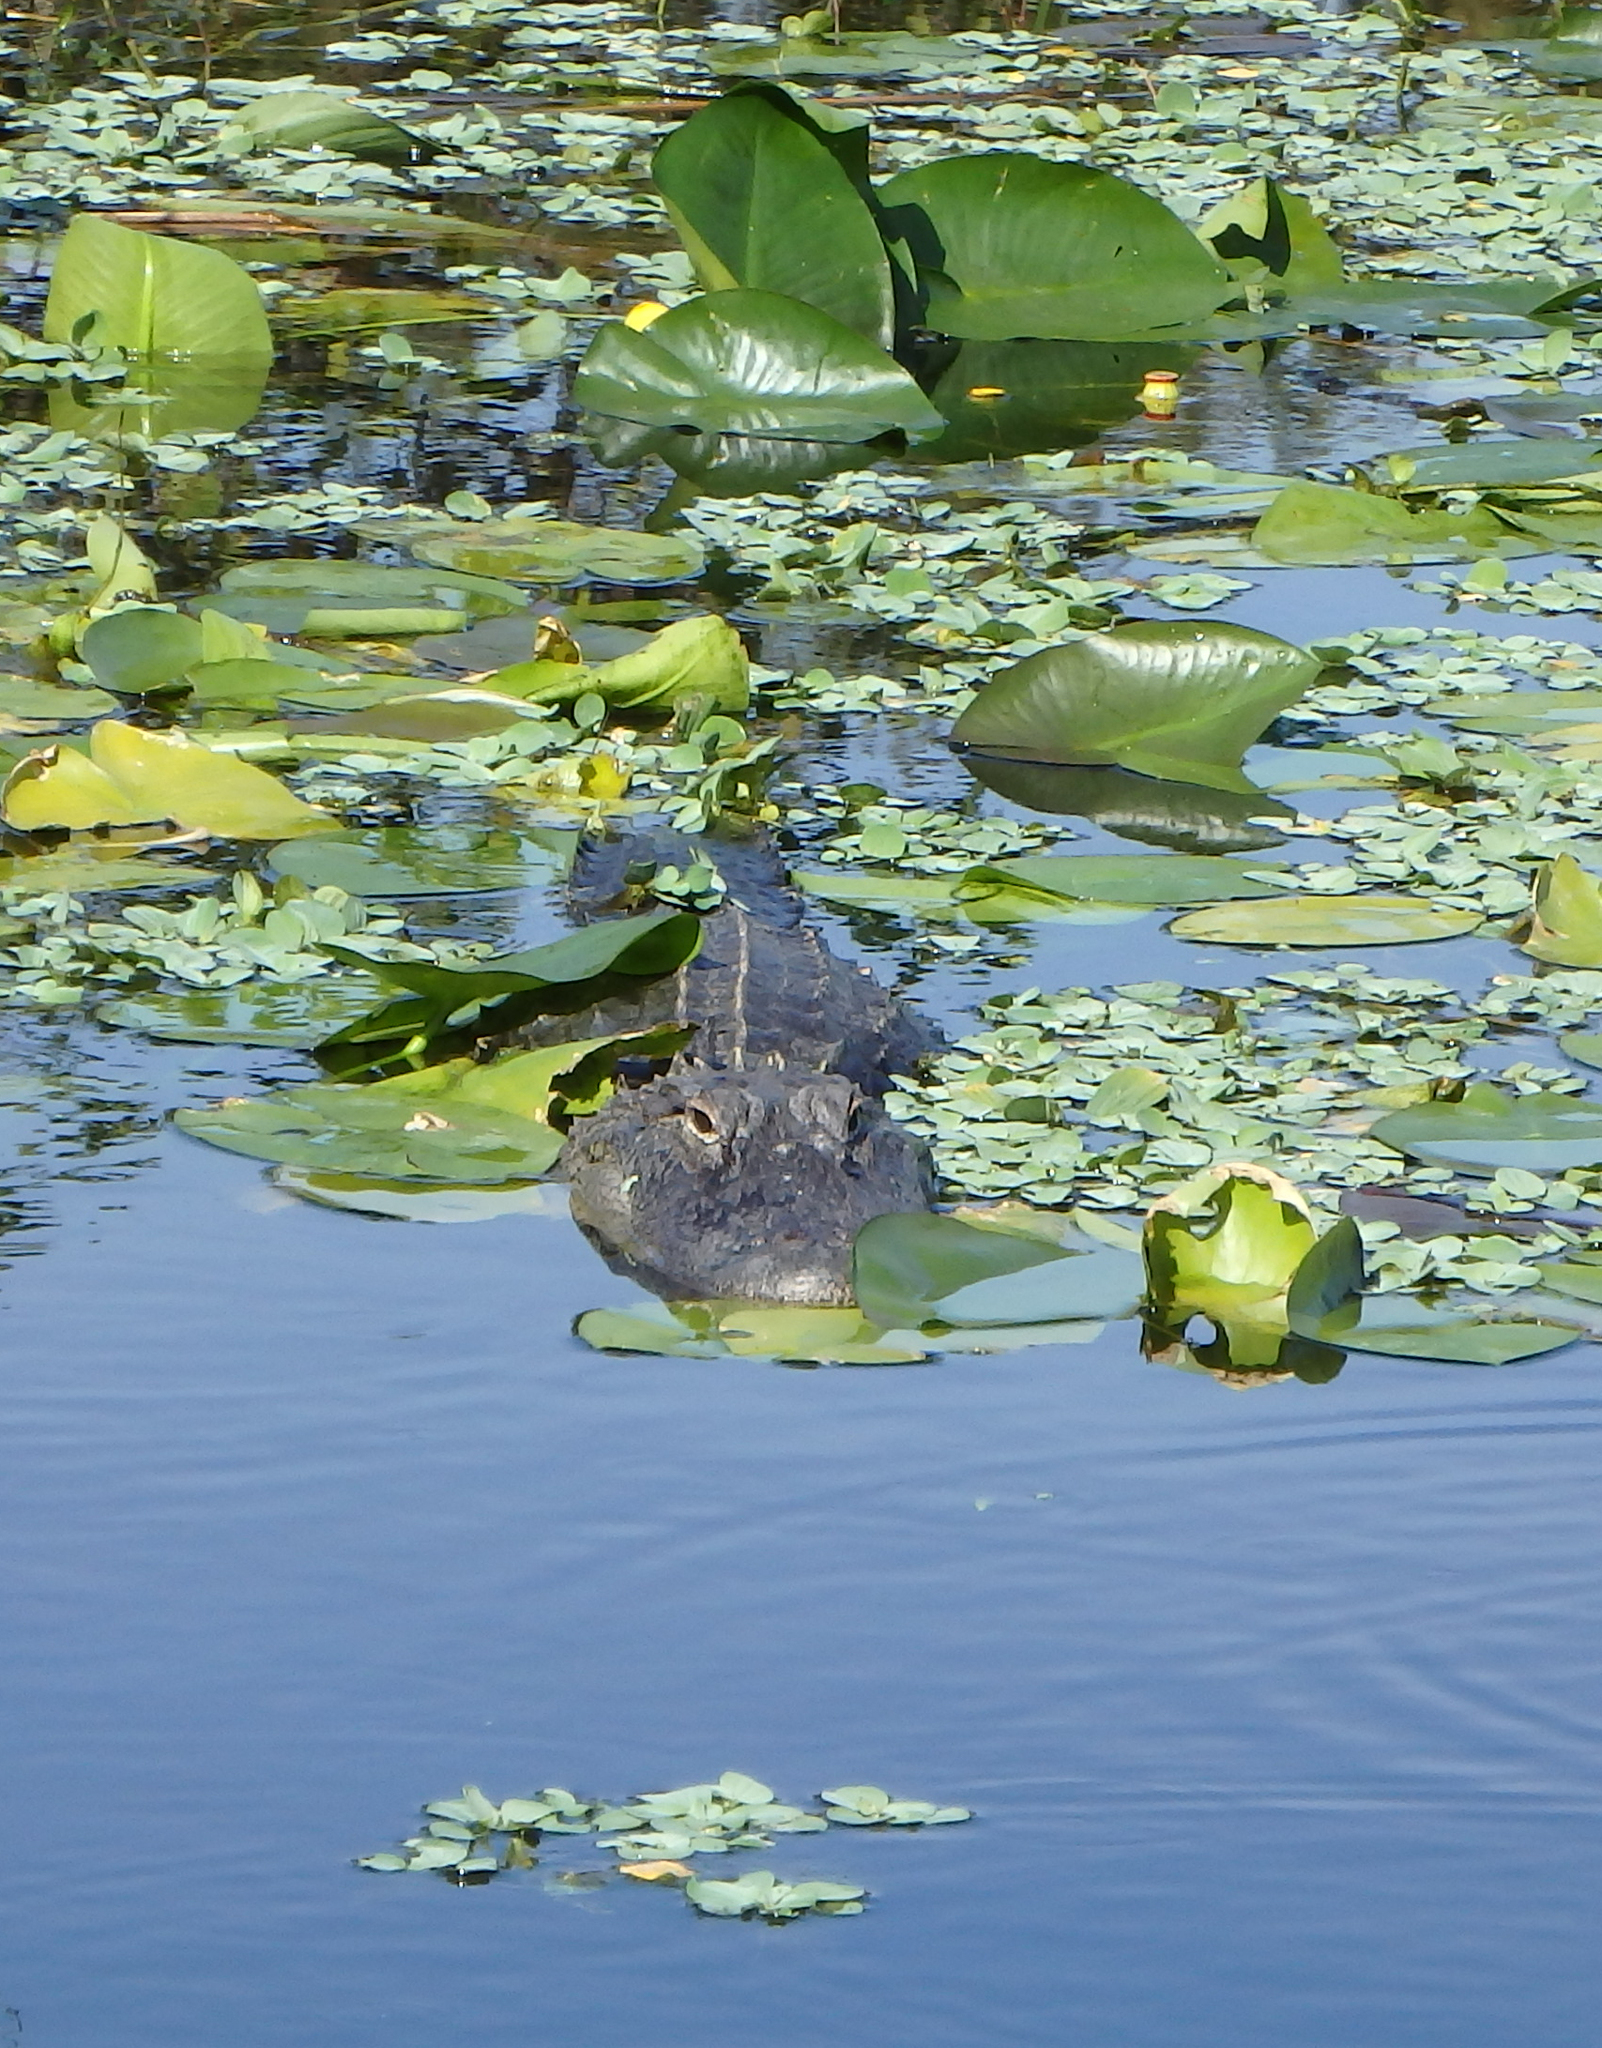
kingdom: Animalia
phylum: Chordata
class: Crocodylia
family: Alligatoridae
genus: Alligator
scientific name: Alligator mississippiensis
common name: American alligator
